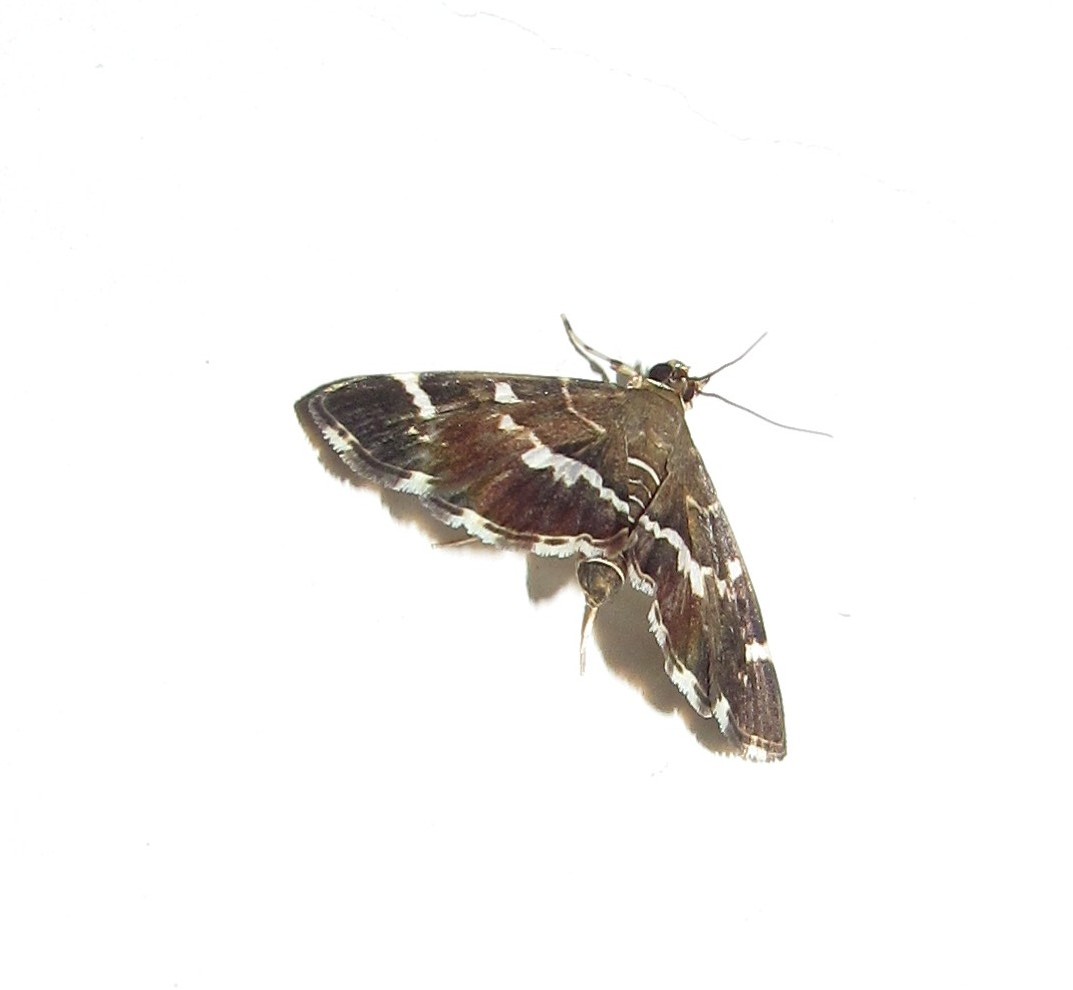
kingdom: Animalia
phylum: Arthropoda
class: Insecta
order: Lepidoptera
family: Crambidae
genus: Hymenia
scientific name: Hymenia perspectalis
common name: Spotted beet webworm
